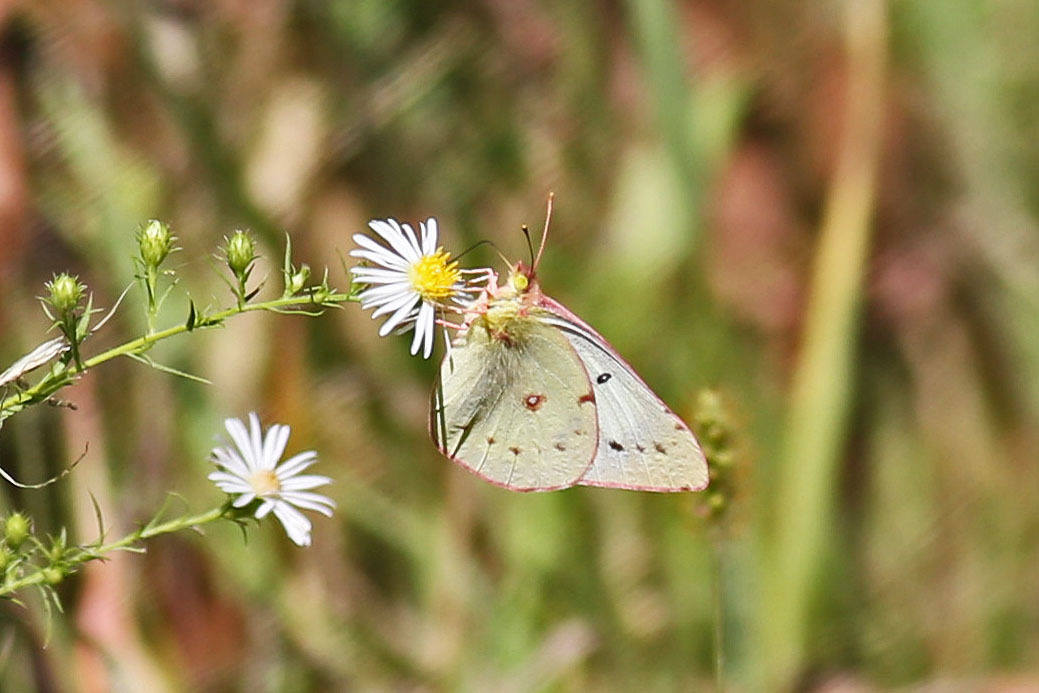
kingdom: Animalia
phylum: Arthropoda
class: Insecta
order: Lepidoptera
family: Pieridae
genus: Colias
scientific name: Colias eurytheme
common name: Alfalfa butterfly
